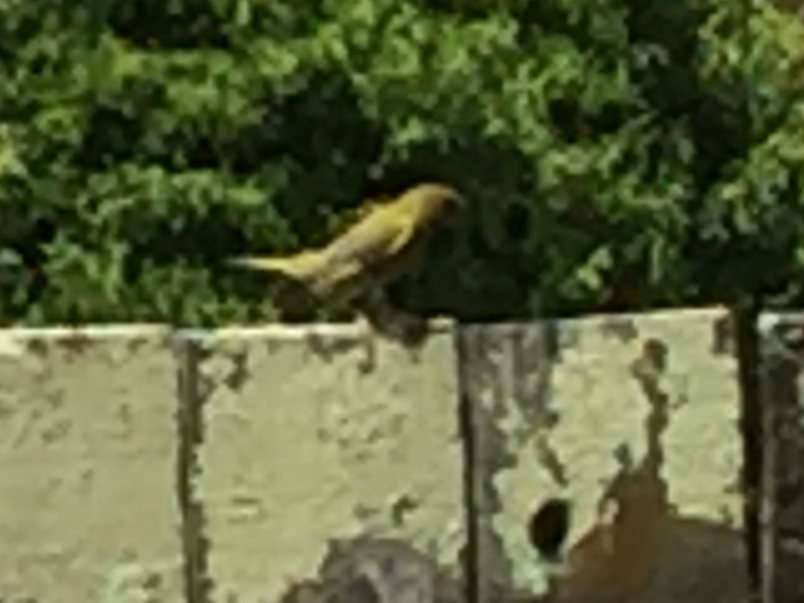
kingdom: Plantae
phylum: Tracheophyta
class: Liliopsida
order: Poales
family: Poaceae
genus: Chloris
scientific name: Chloris chloris
